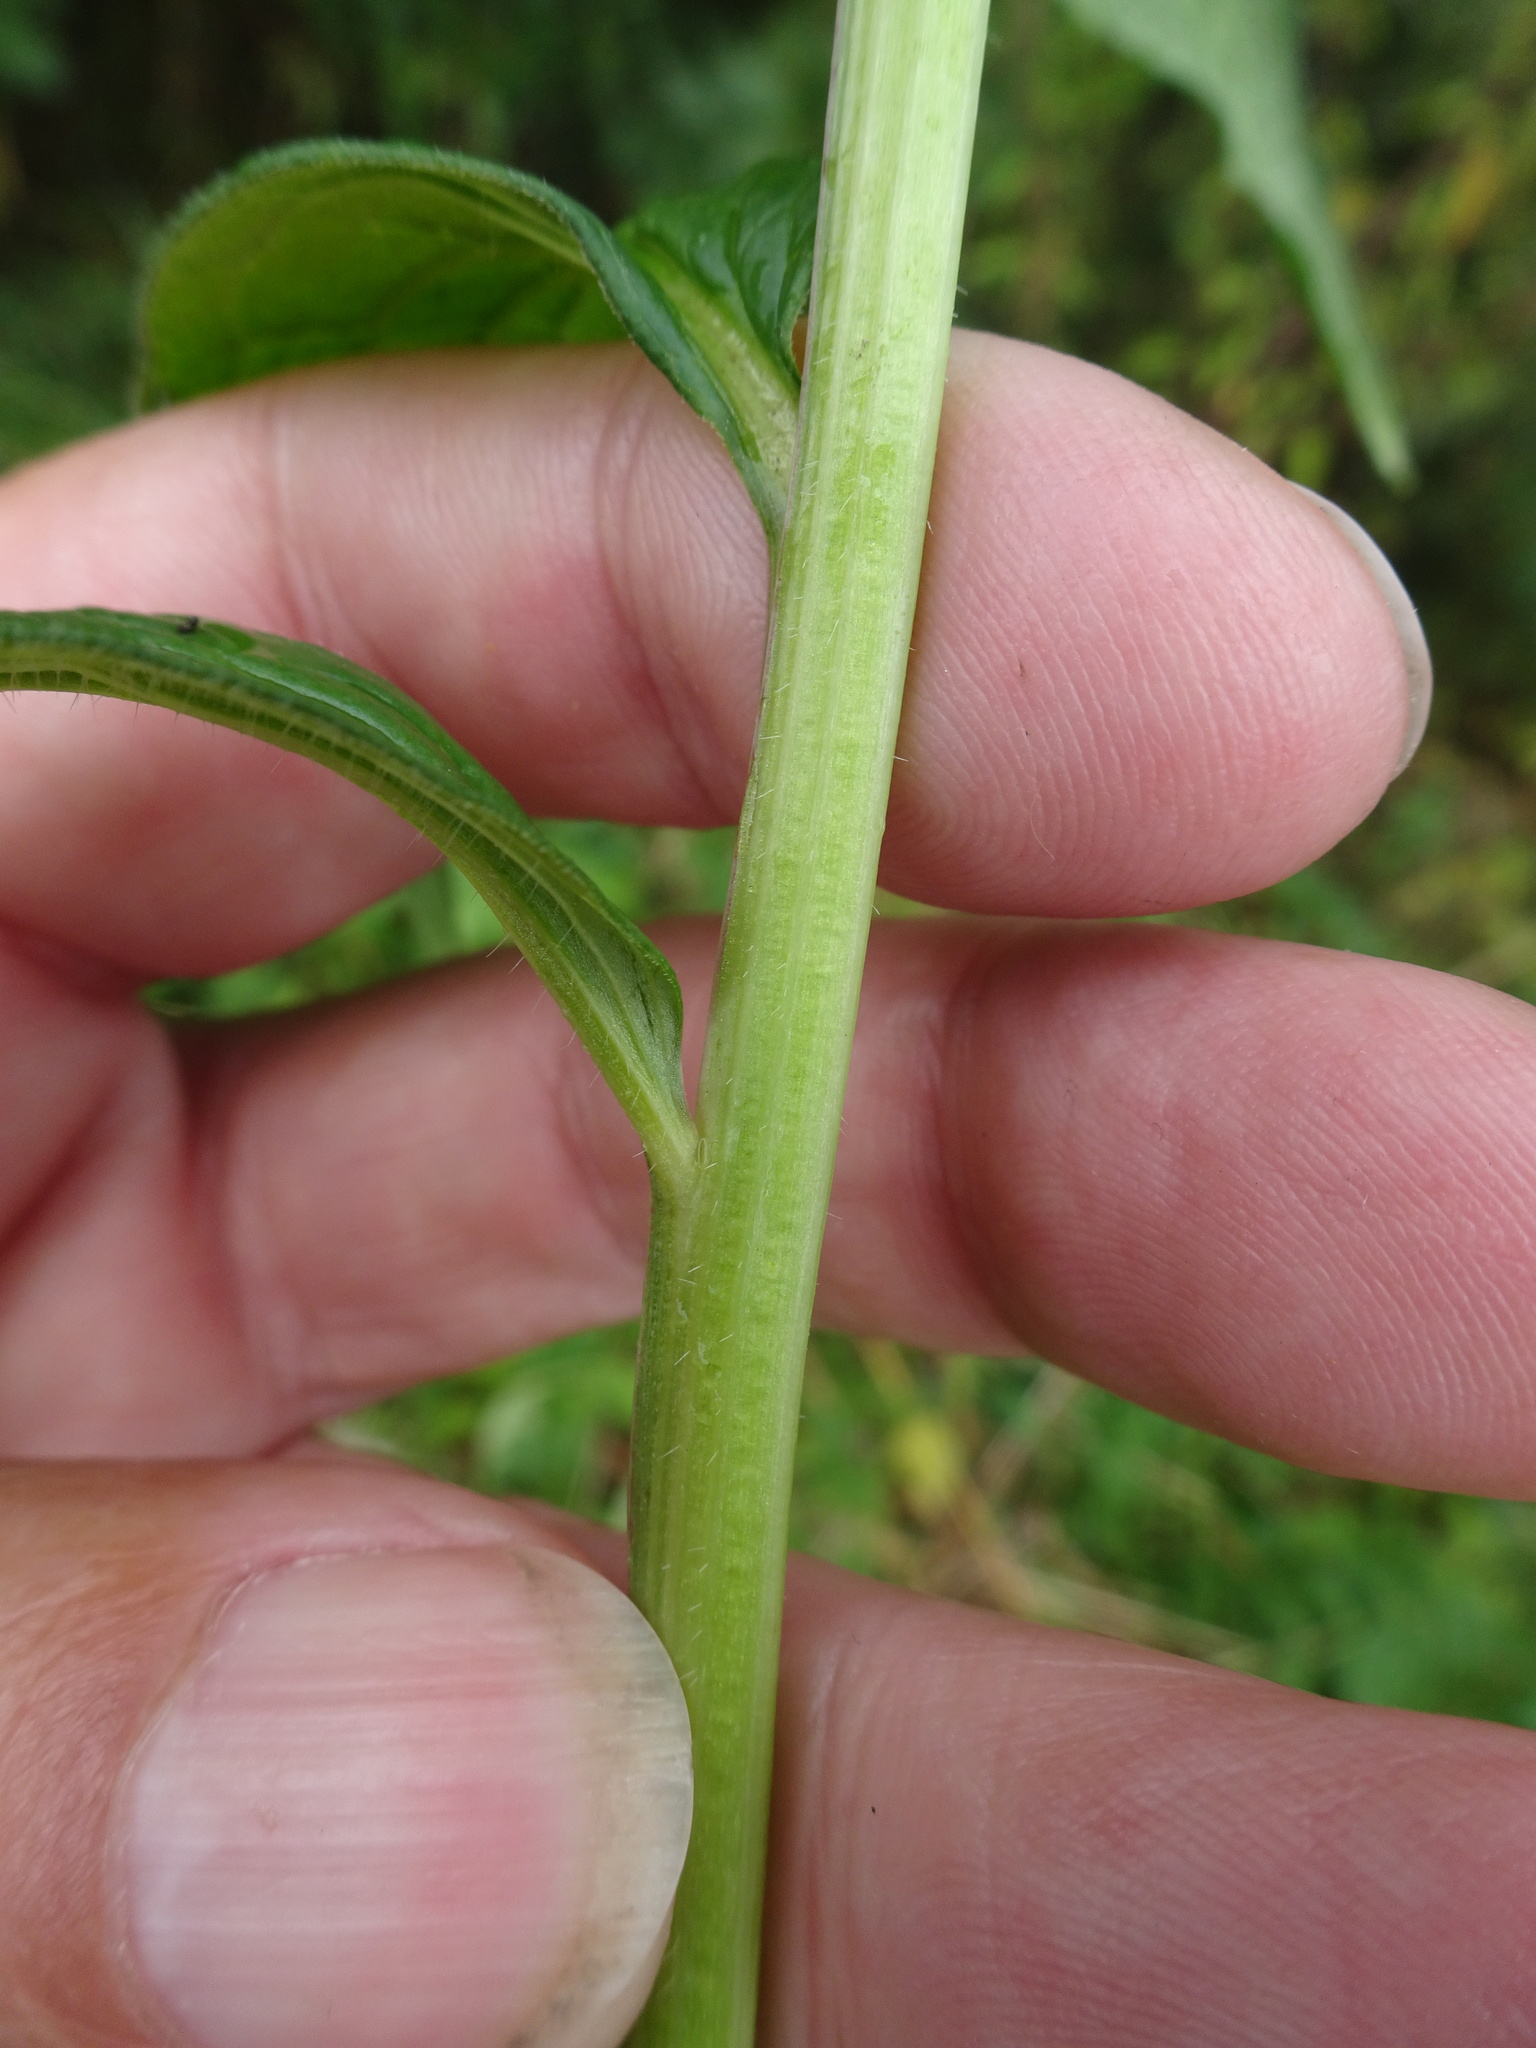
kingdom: Plantae
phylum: Tracheophyta
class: Magnoliopsida
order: Dipsacales
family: Caprifoliaceae
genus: Valeriana
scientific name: Valeriana officinalis
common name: Common valerian
